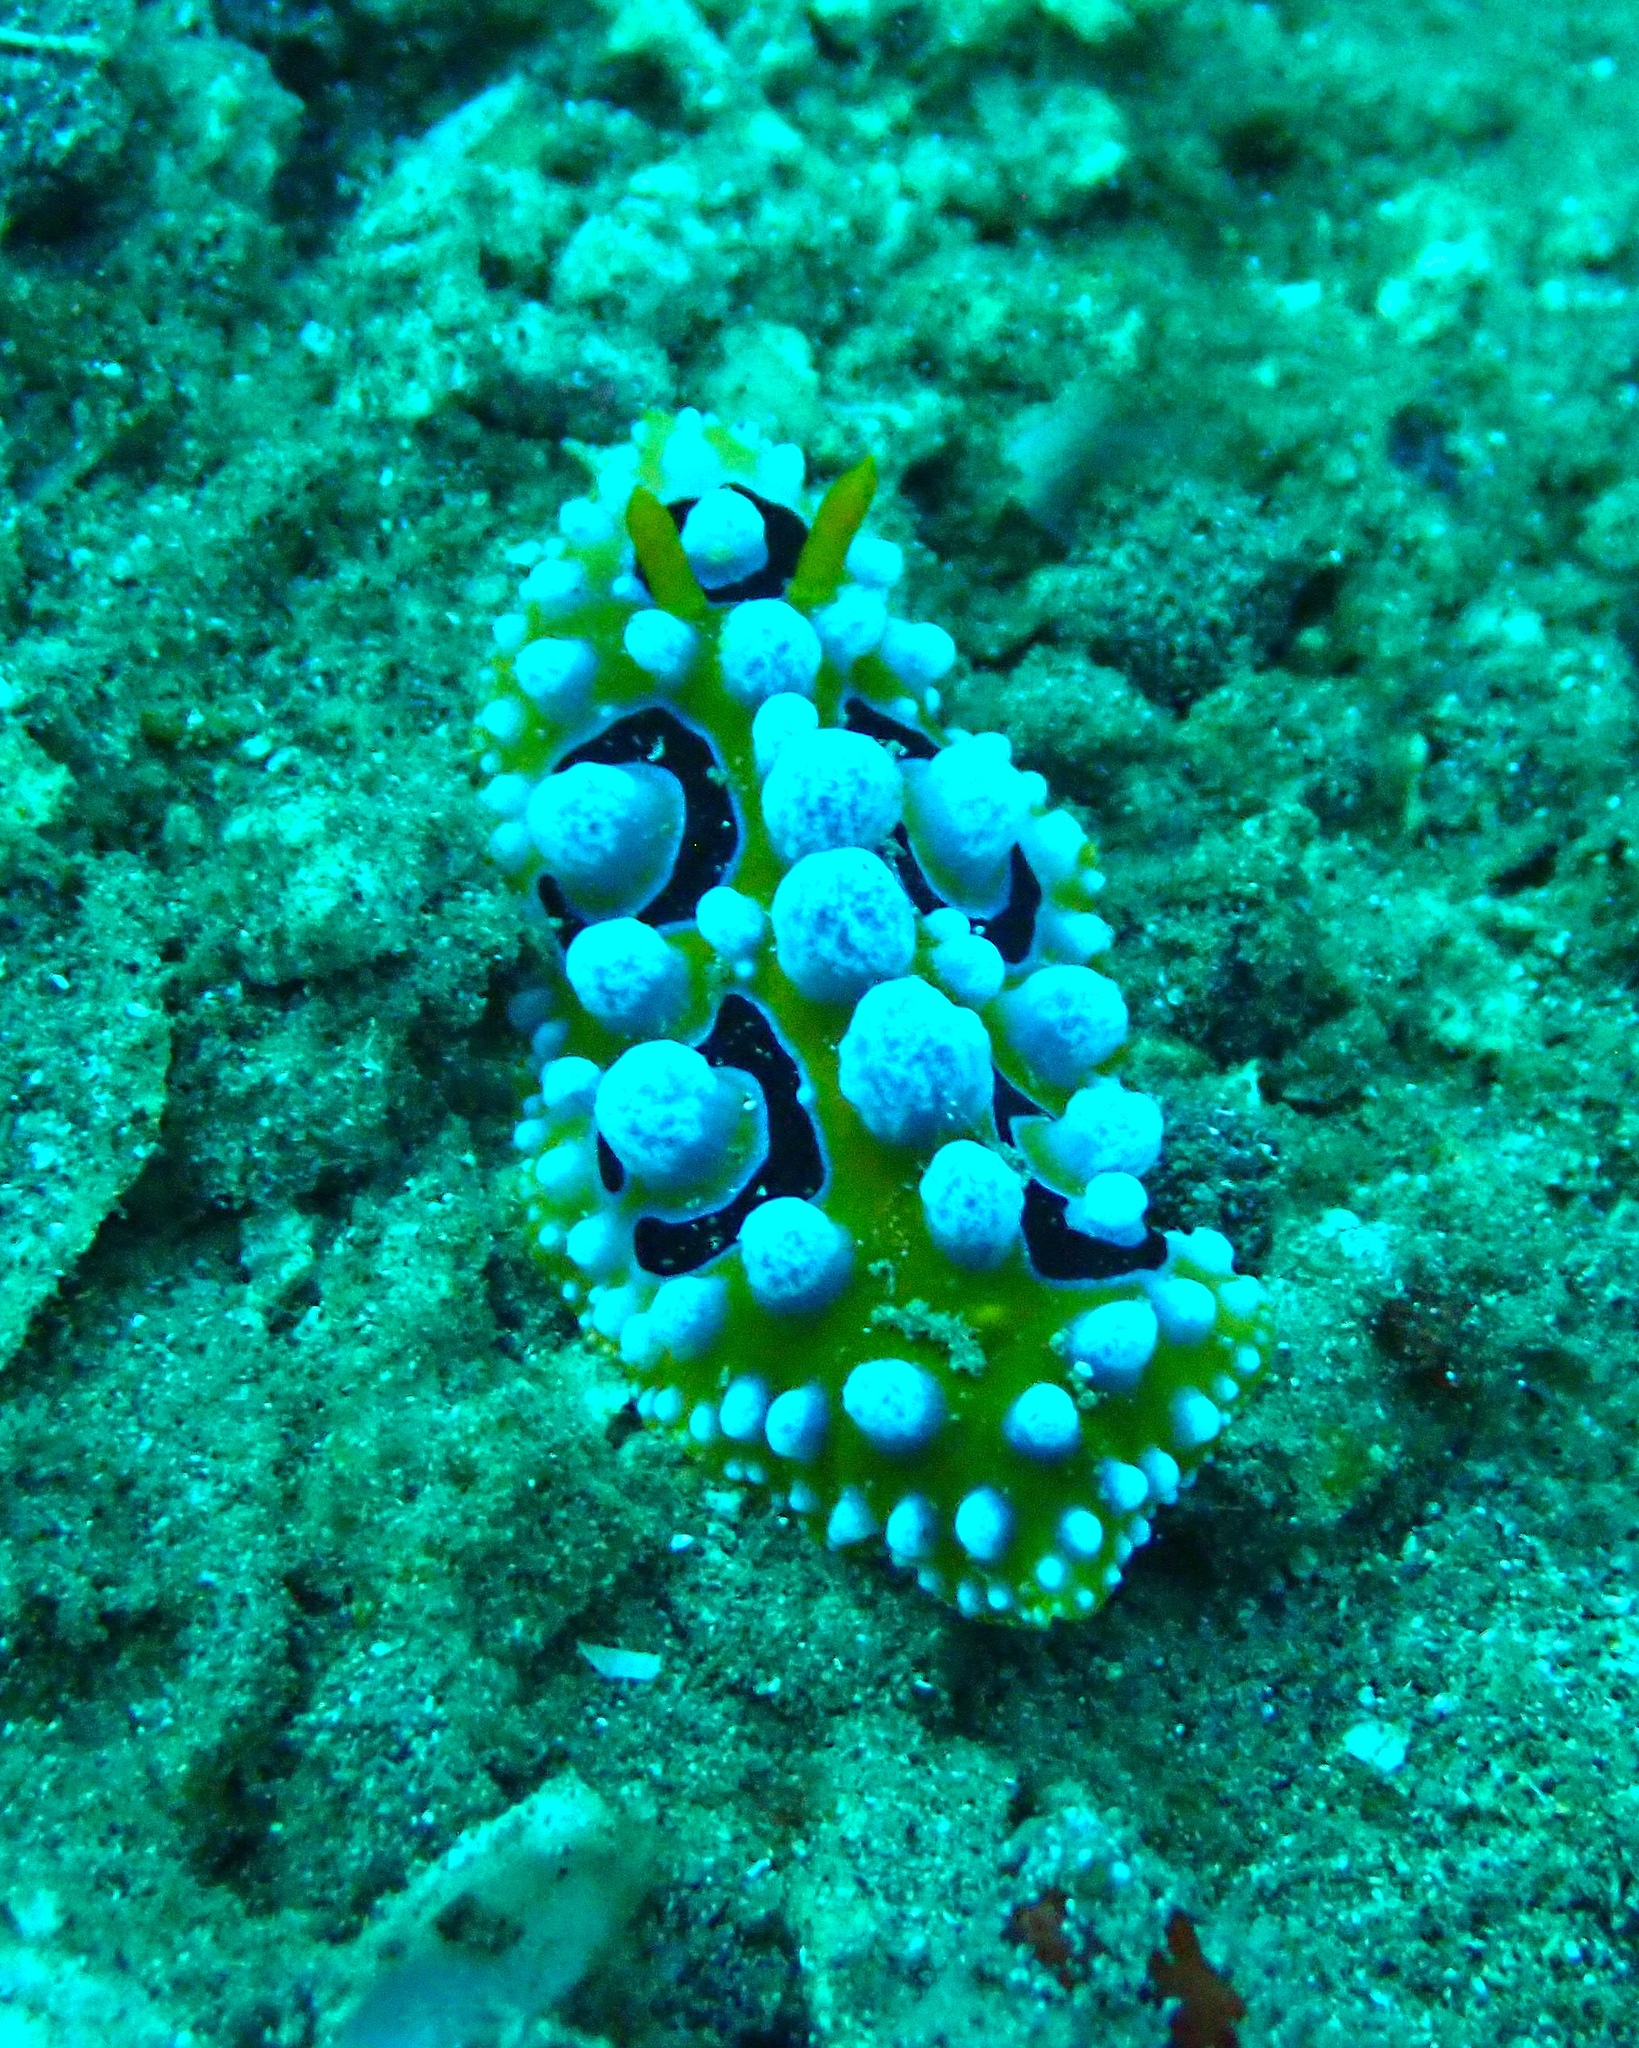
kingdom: Animalia
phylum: Mollusca
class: Gastropoda
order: Nudibranchia
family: Phyllidiidae
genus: Phyllidia
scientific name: Phyllidia ocellata
